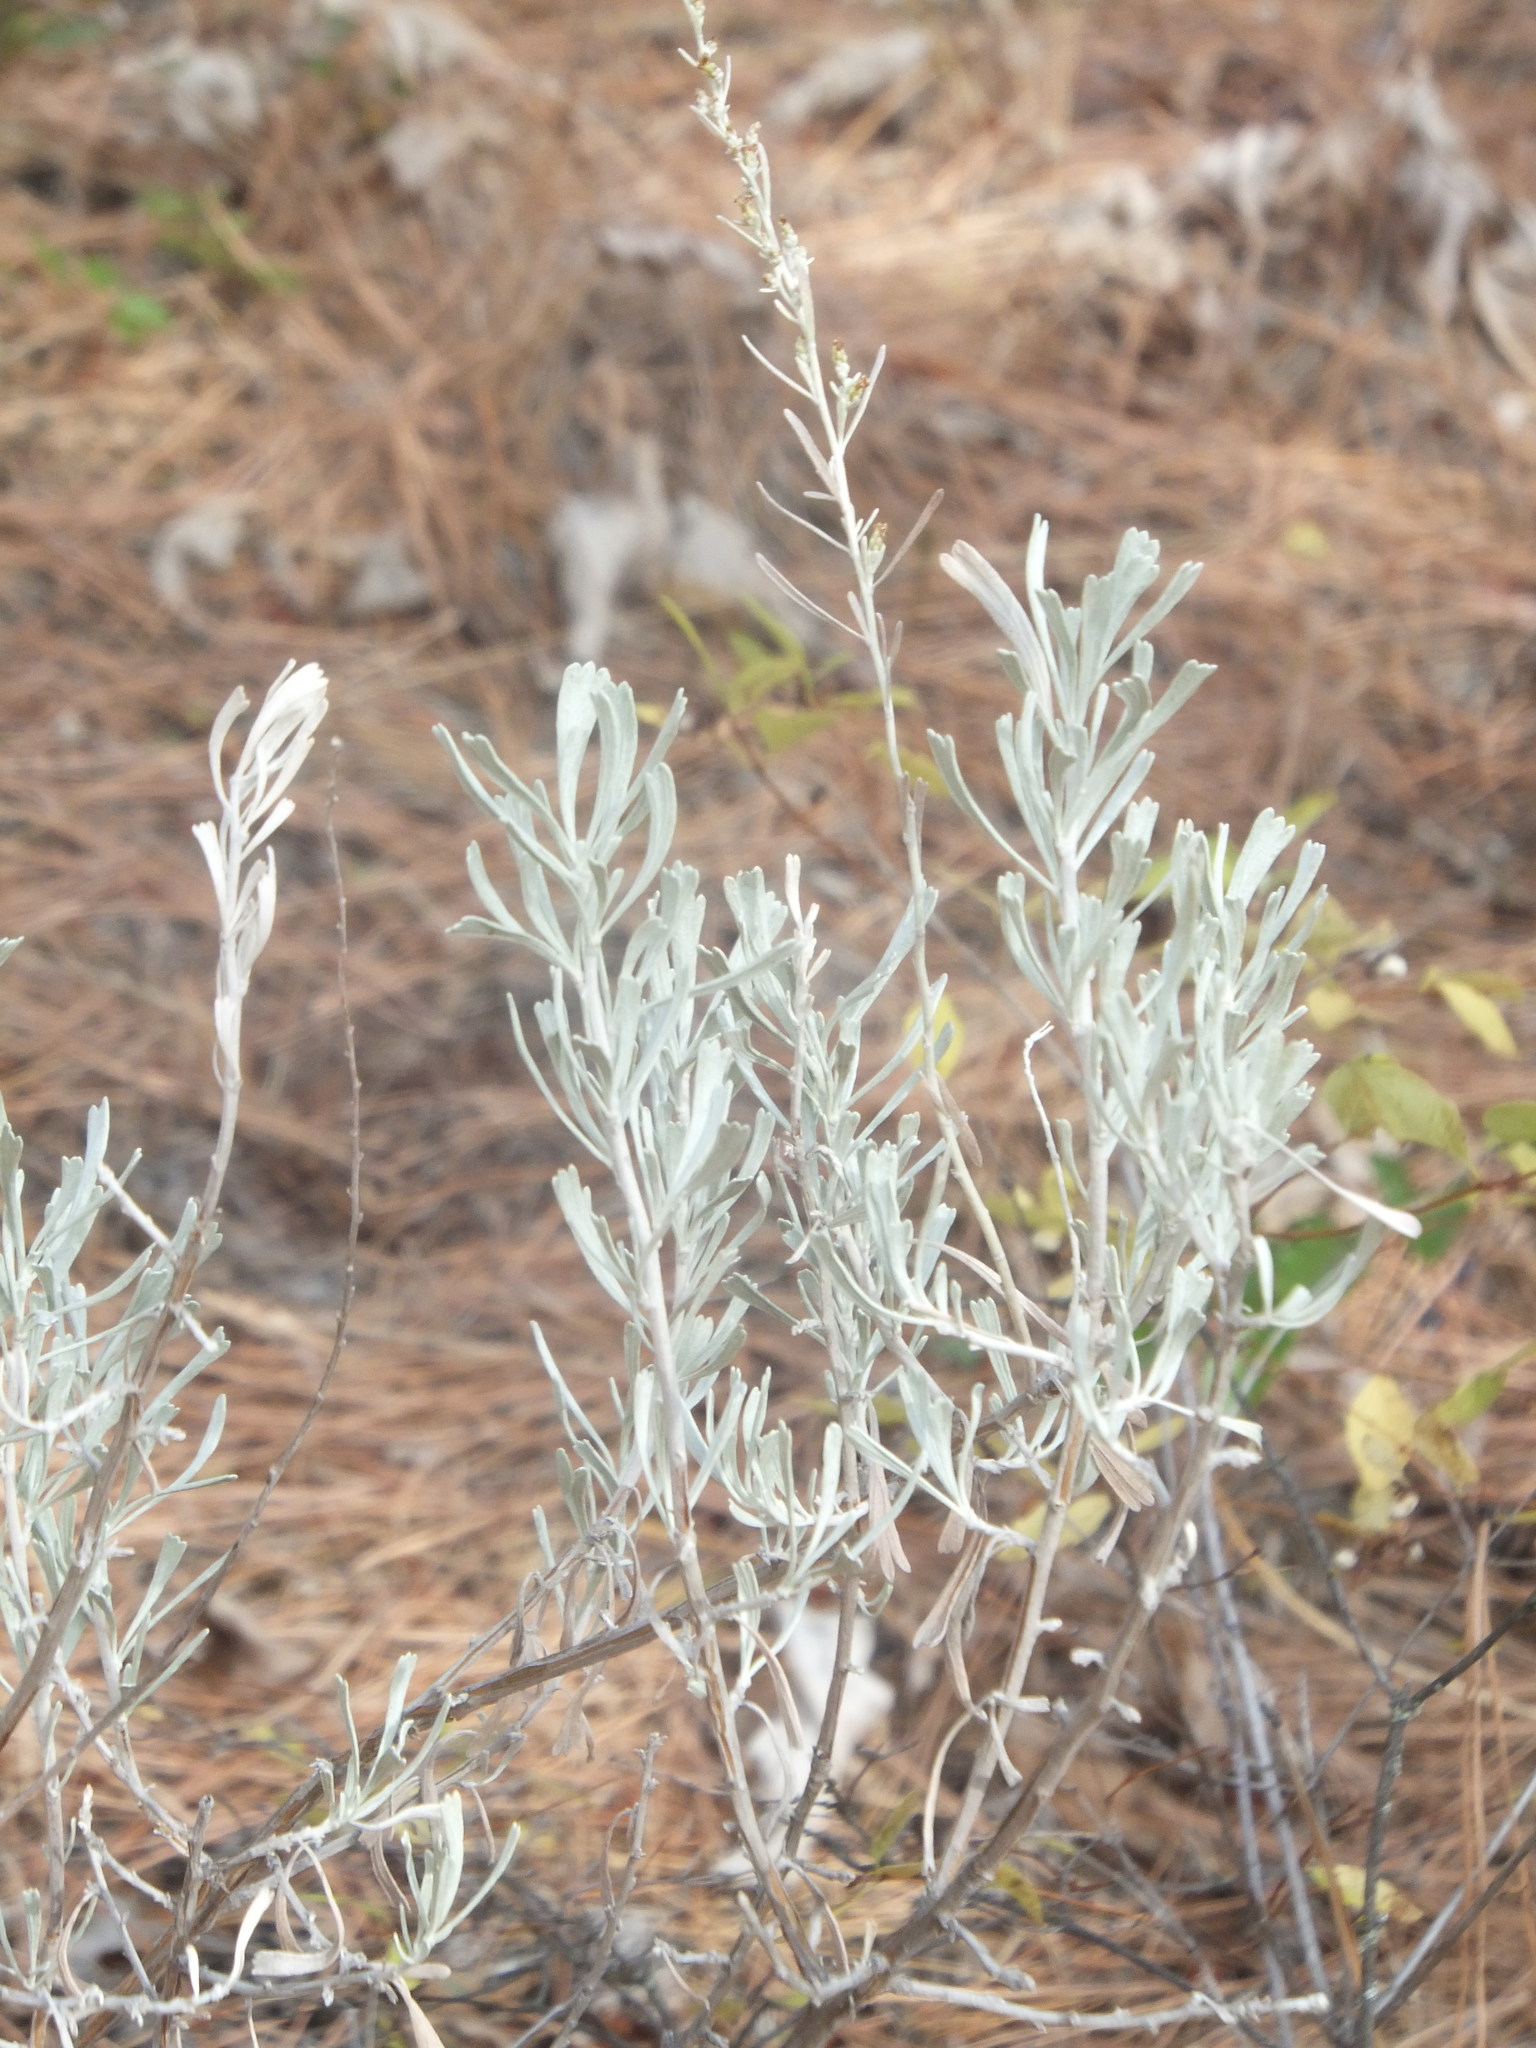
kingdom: Plantae
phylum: Tracheophyta
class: Magnoliopsida
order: Asterales
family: Asteraceae
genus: Artemisia
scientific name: Artemisia tridentata
